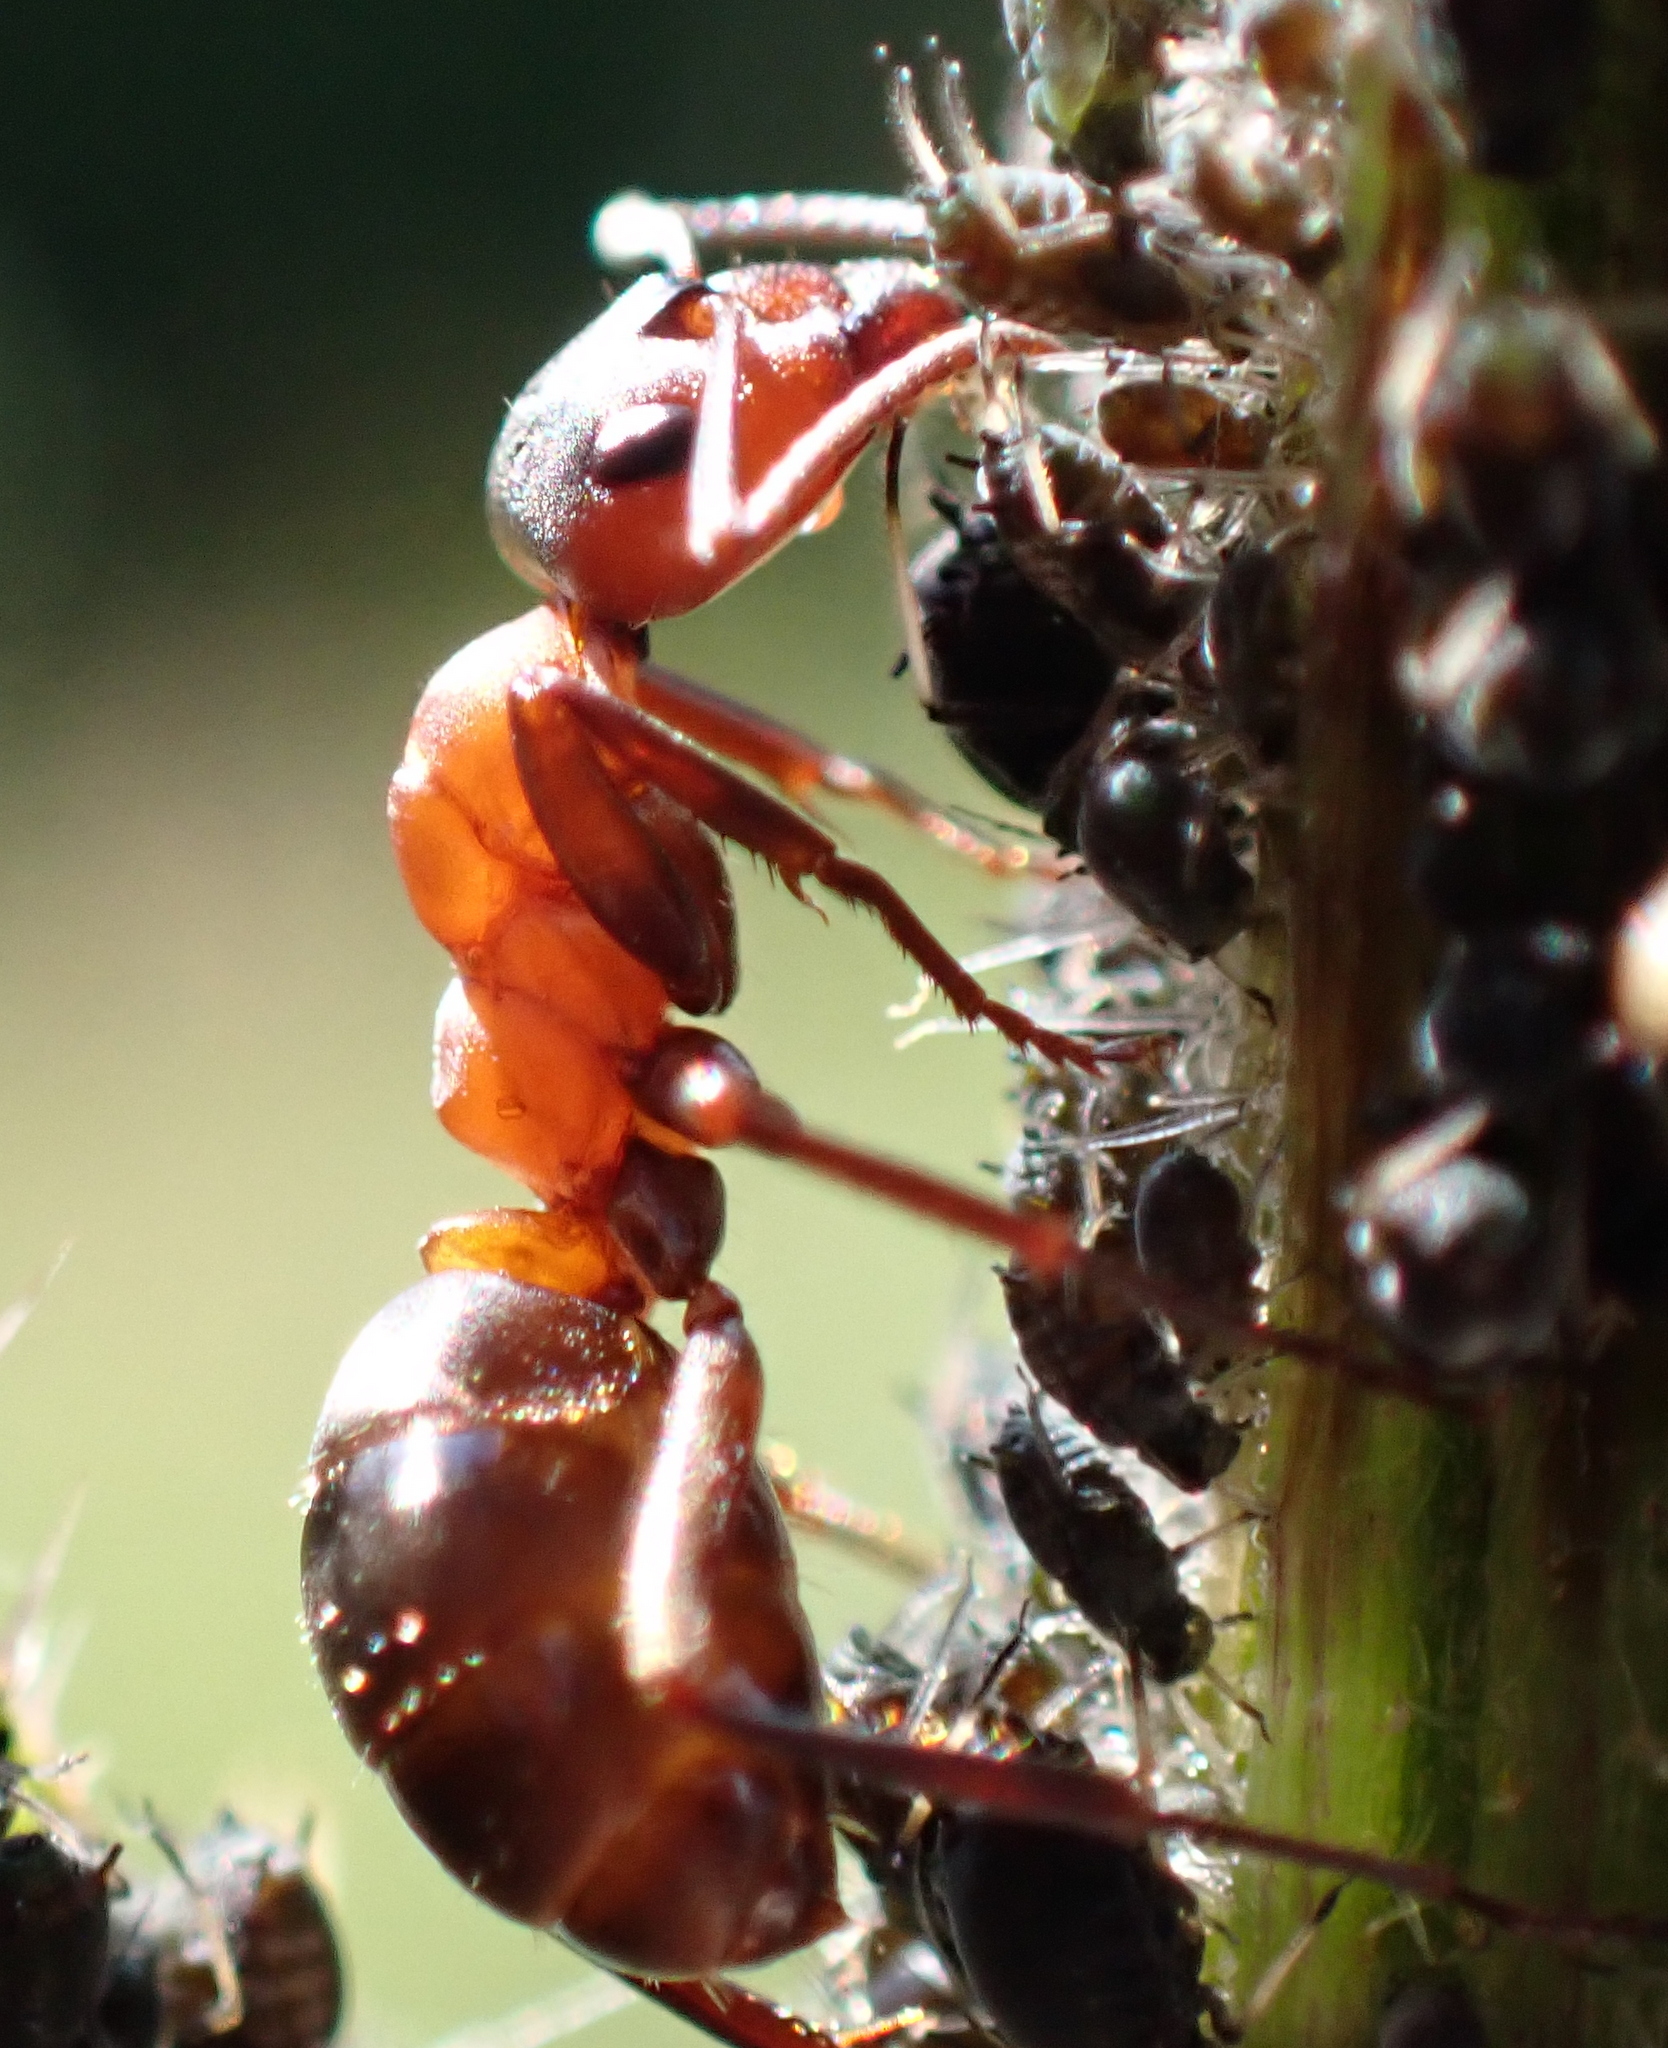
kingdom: Animalia
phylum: Arthropoda
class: Insecta
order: Hymenoptera
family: Formicidae
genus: Formica
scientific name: Formica sanguinea
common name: Blood-red ant
